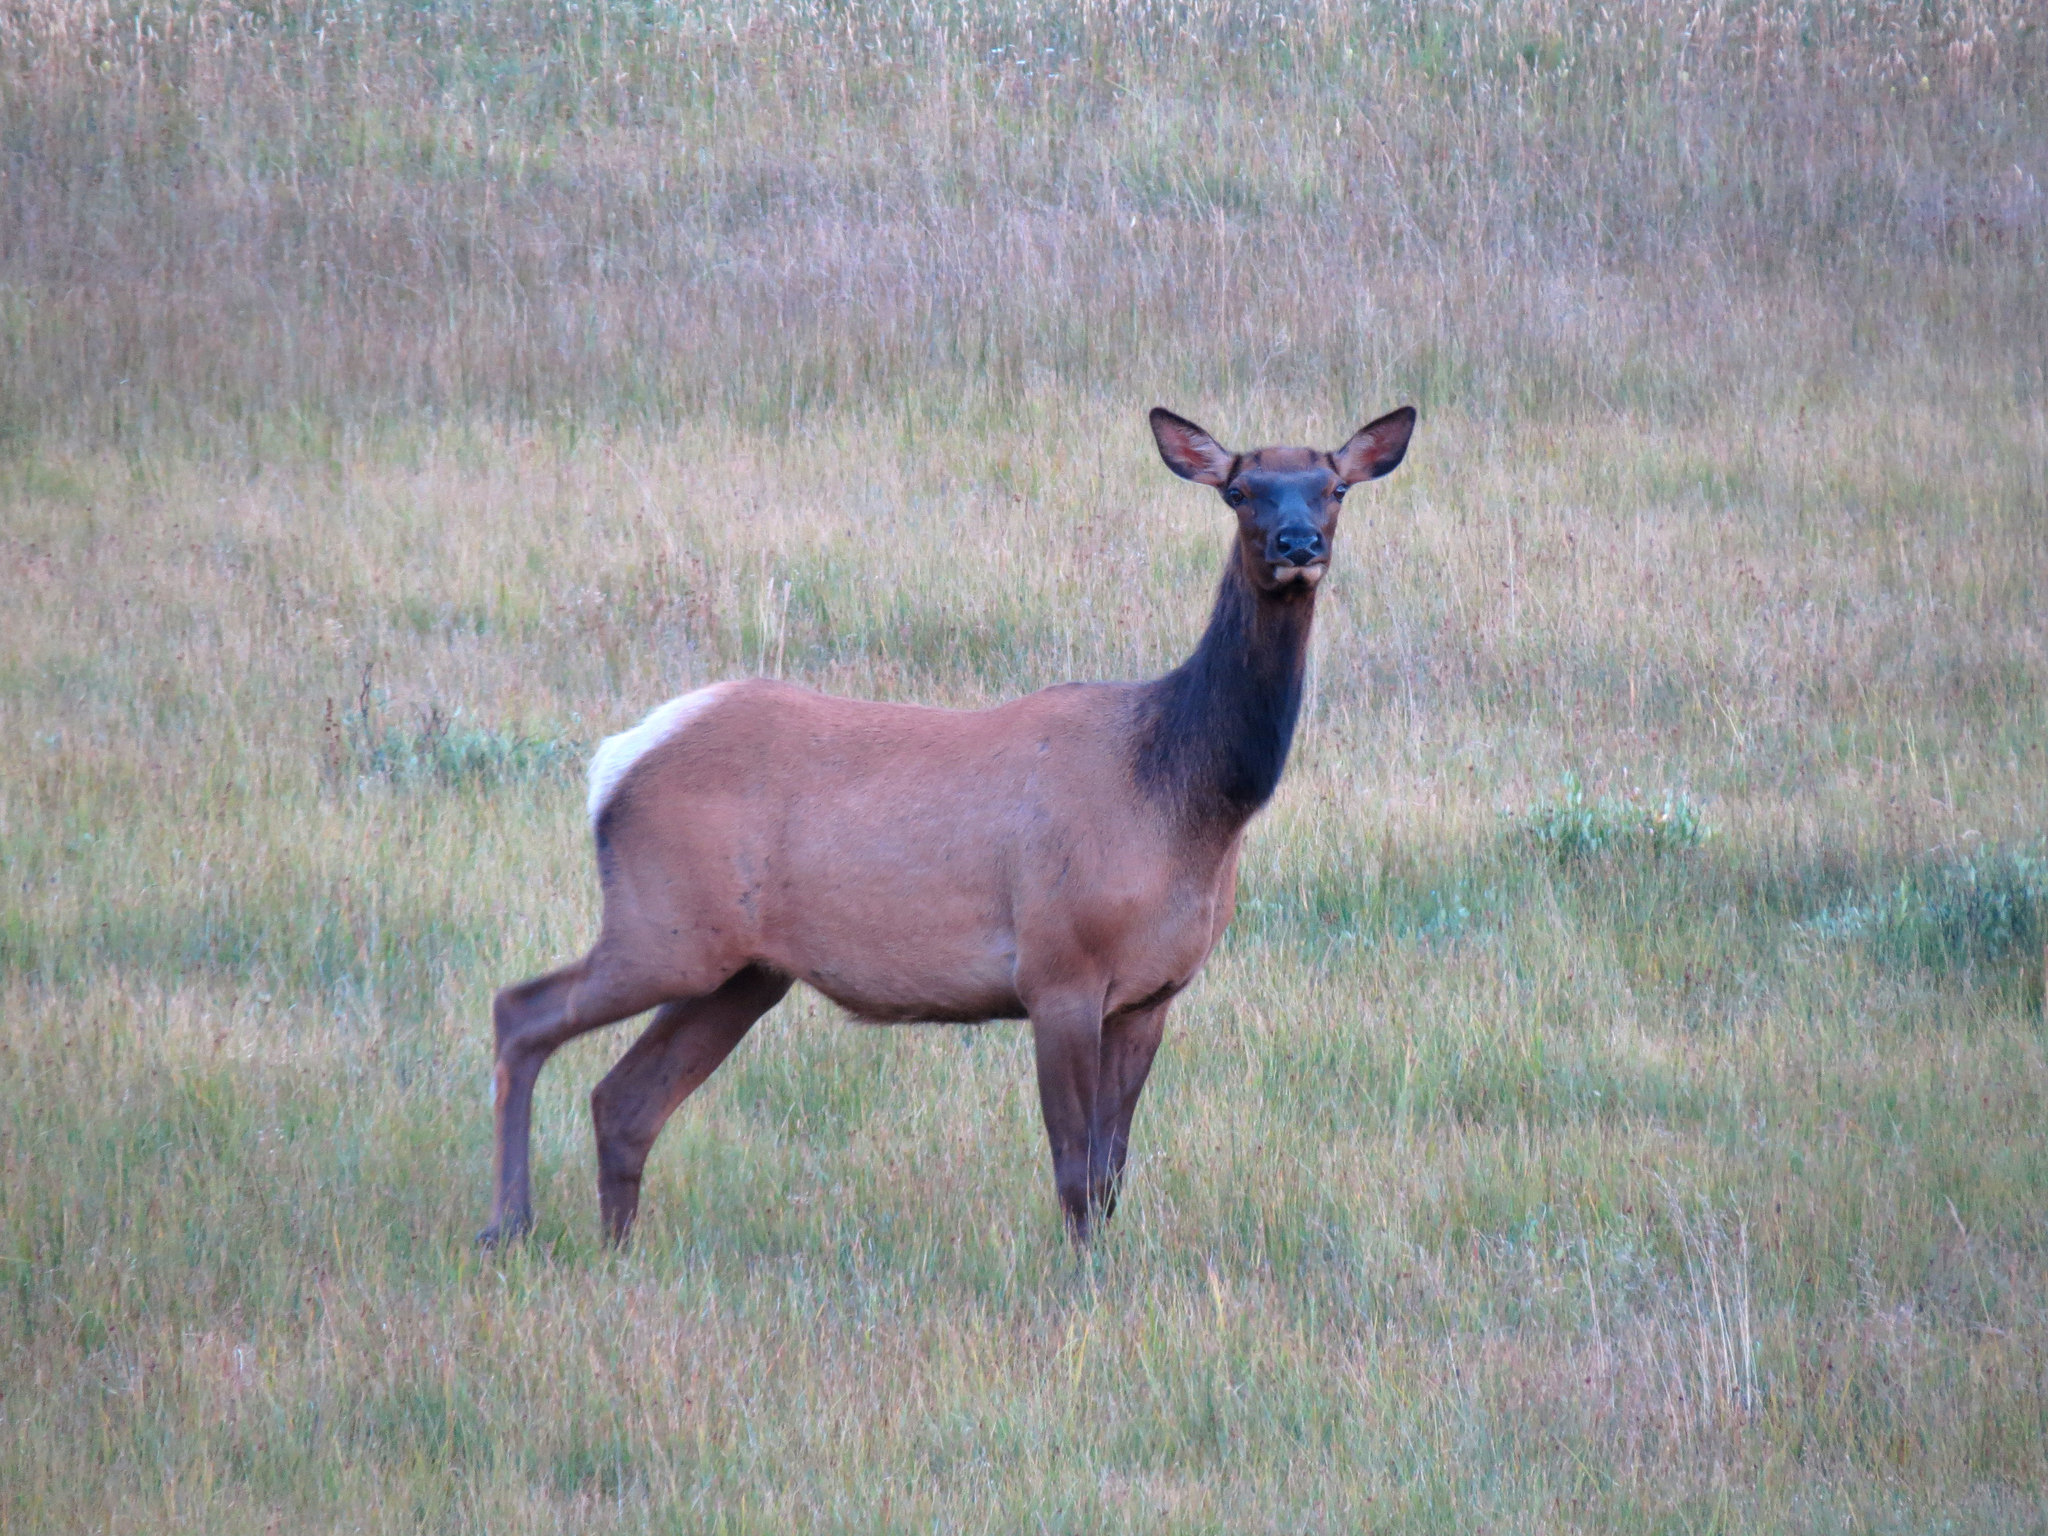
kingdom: Animalia
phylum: Chordata
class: Mammalia
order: Artiodactyla
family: Cervidae
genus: Cervus
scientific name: Cervus elaphus
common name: Red deer
